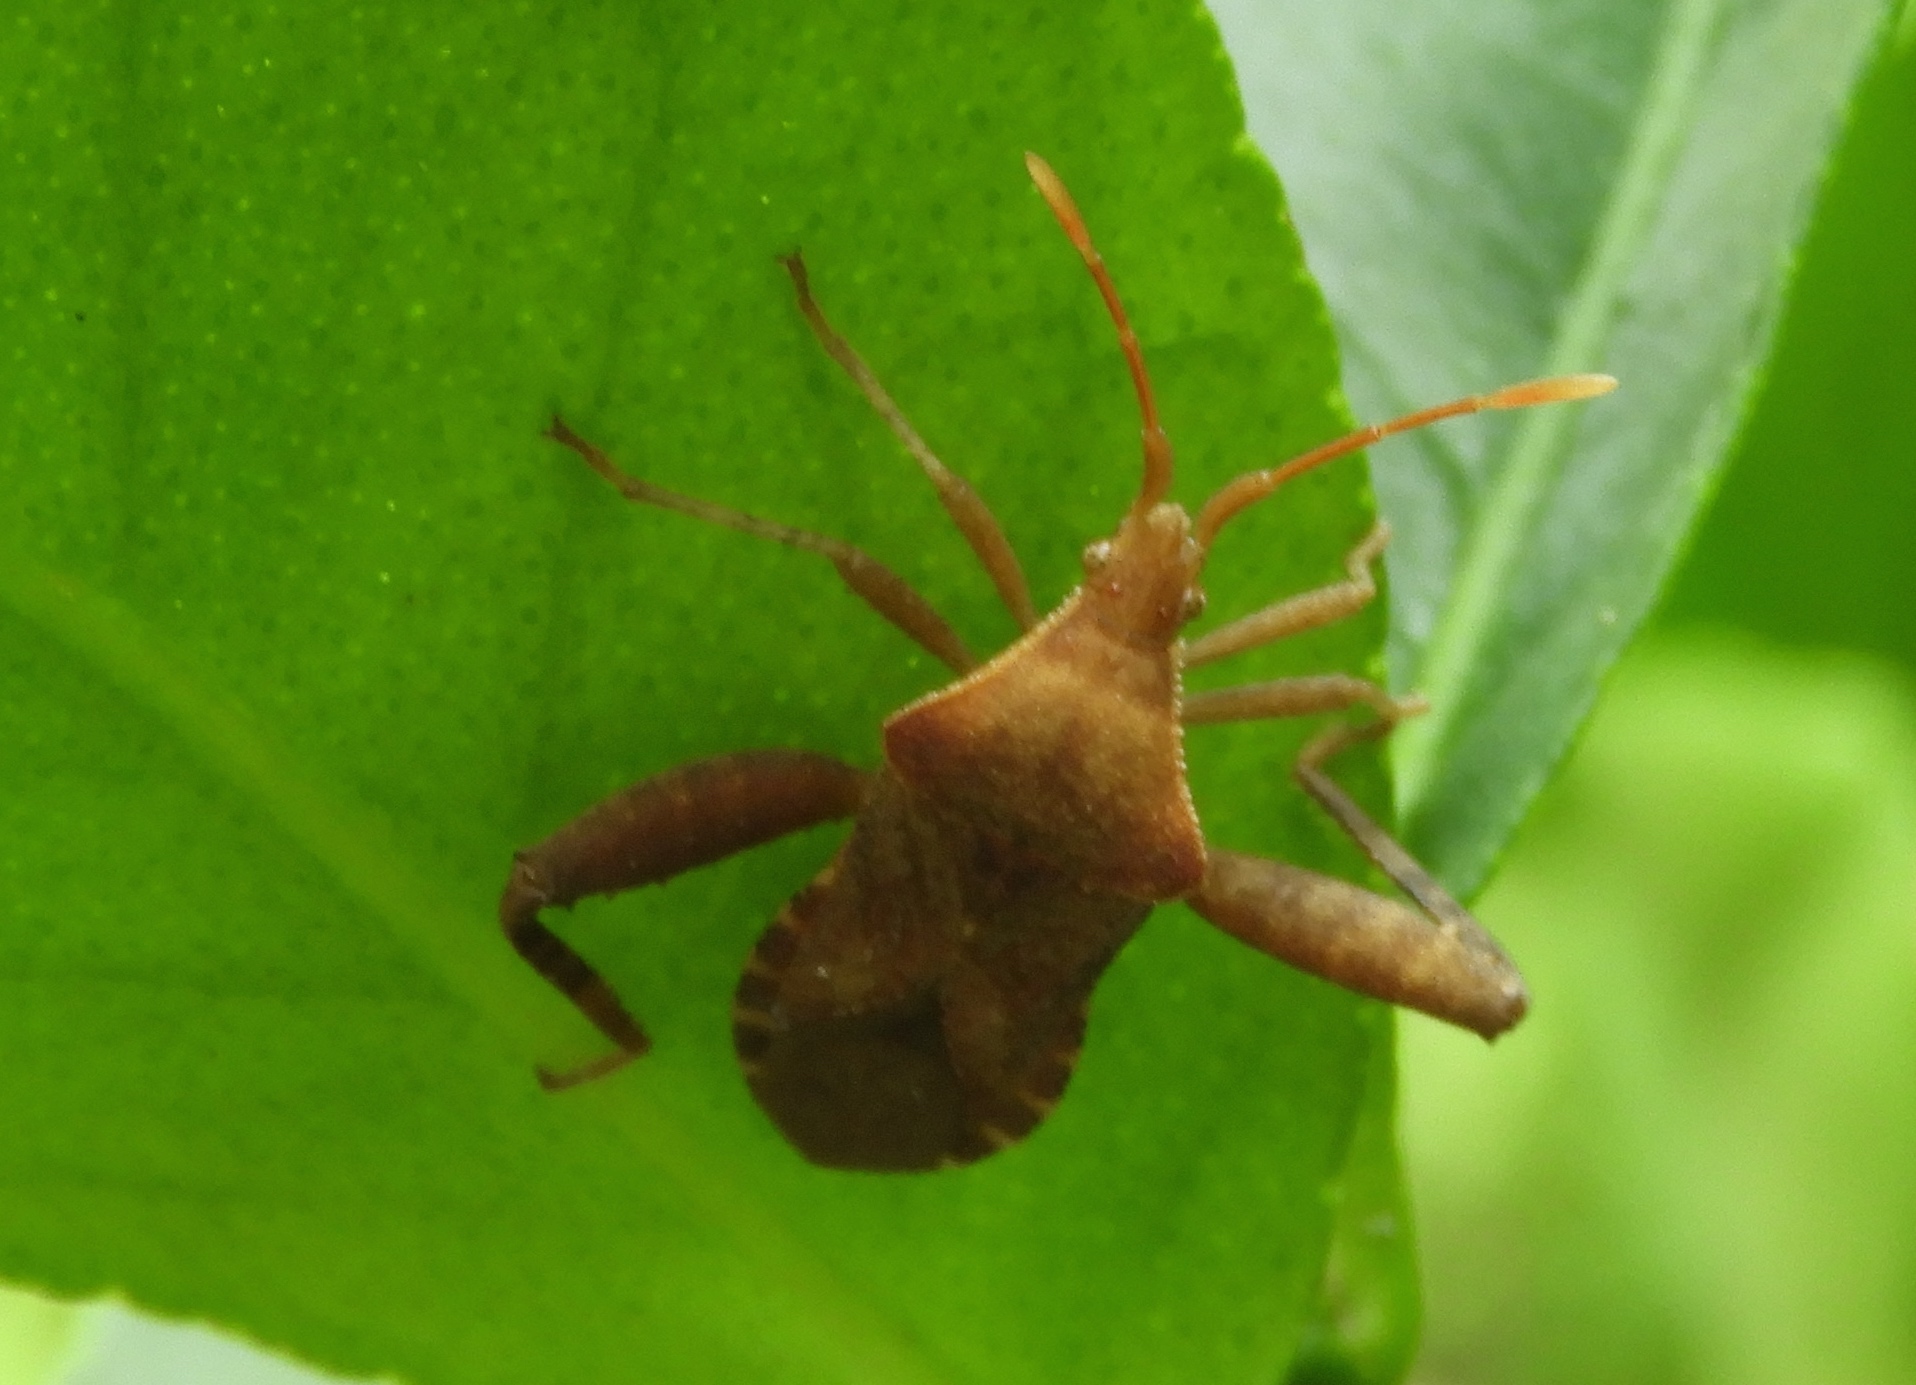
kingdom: Animalia
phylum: Arthropoda
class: Insecta
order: Hemiptera
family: Coreidae
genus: Mamurius
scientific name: Mamurius mopsus
